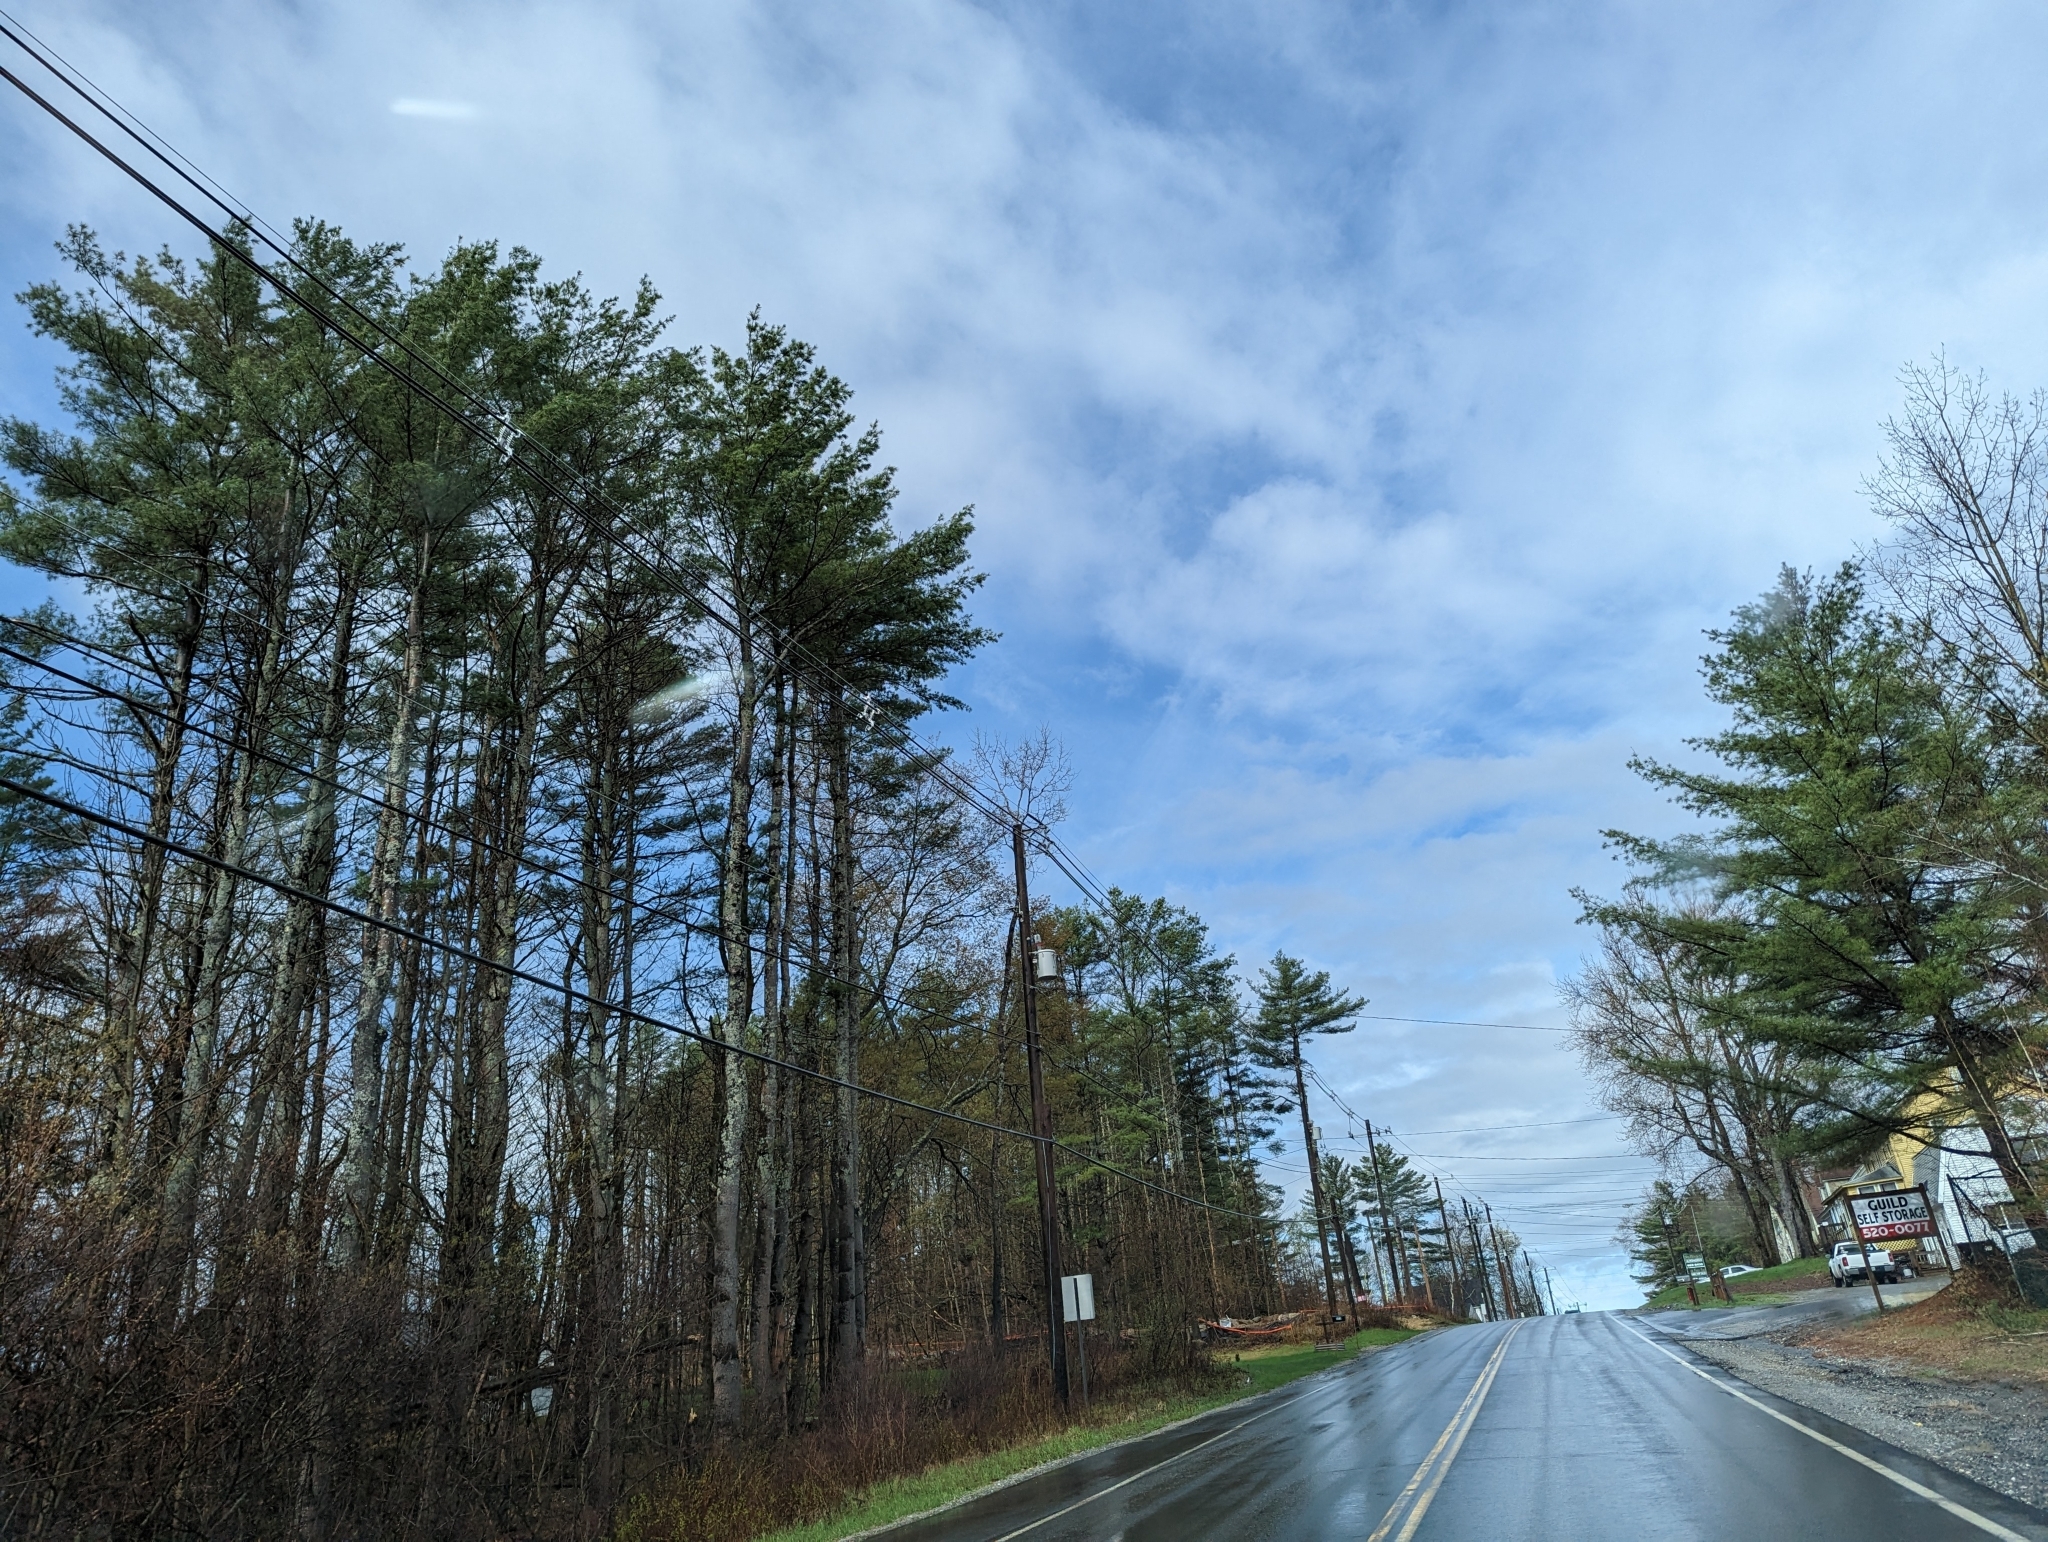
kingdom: Plantae
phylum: Tracheophyta
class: Pinopsida
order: Pinales
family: Pinaceae
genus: Pinus
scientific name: Pinus strobus
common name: Weymouth pine
